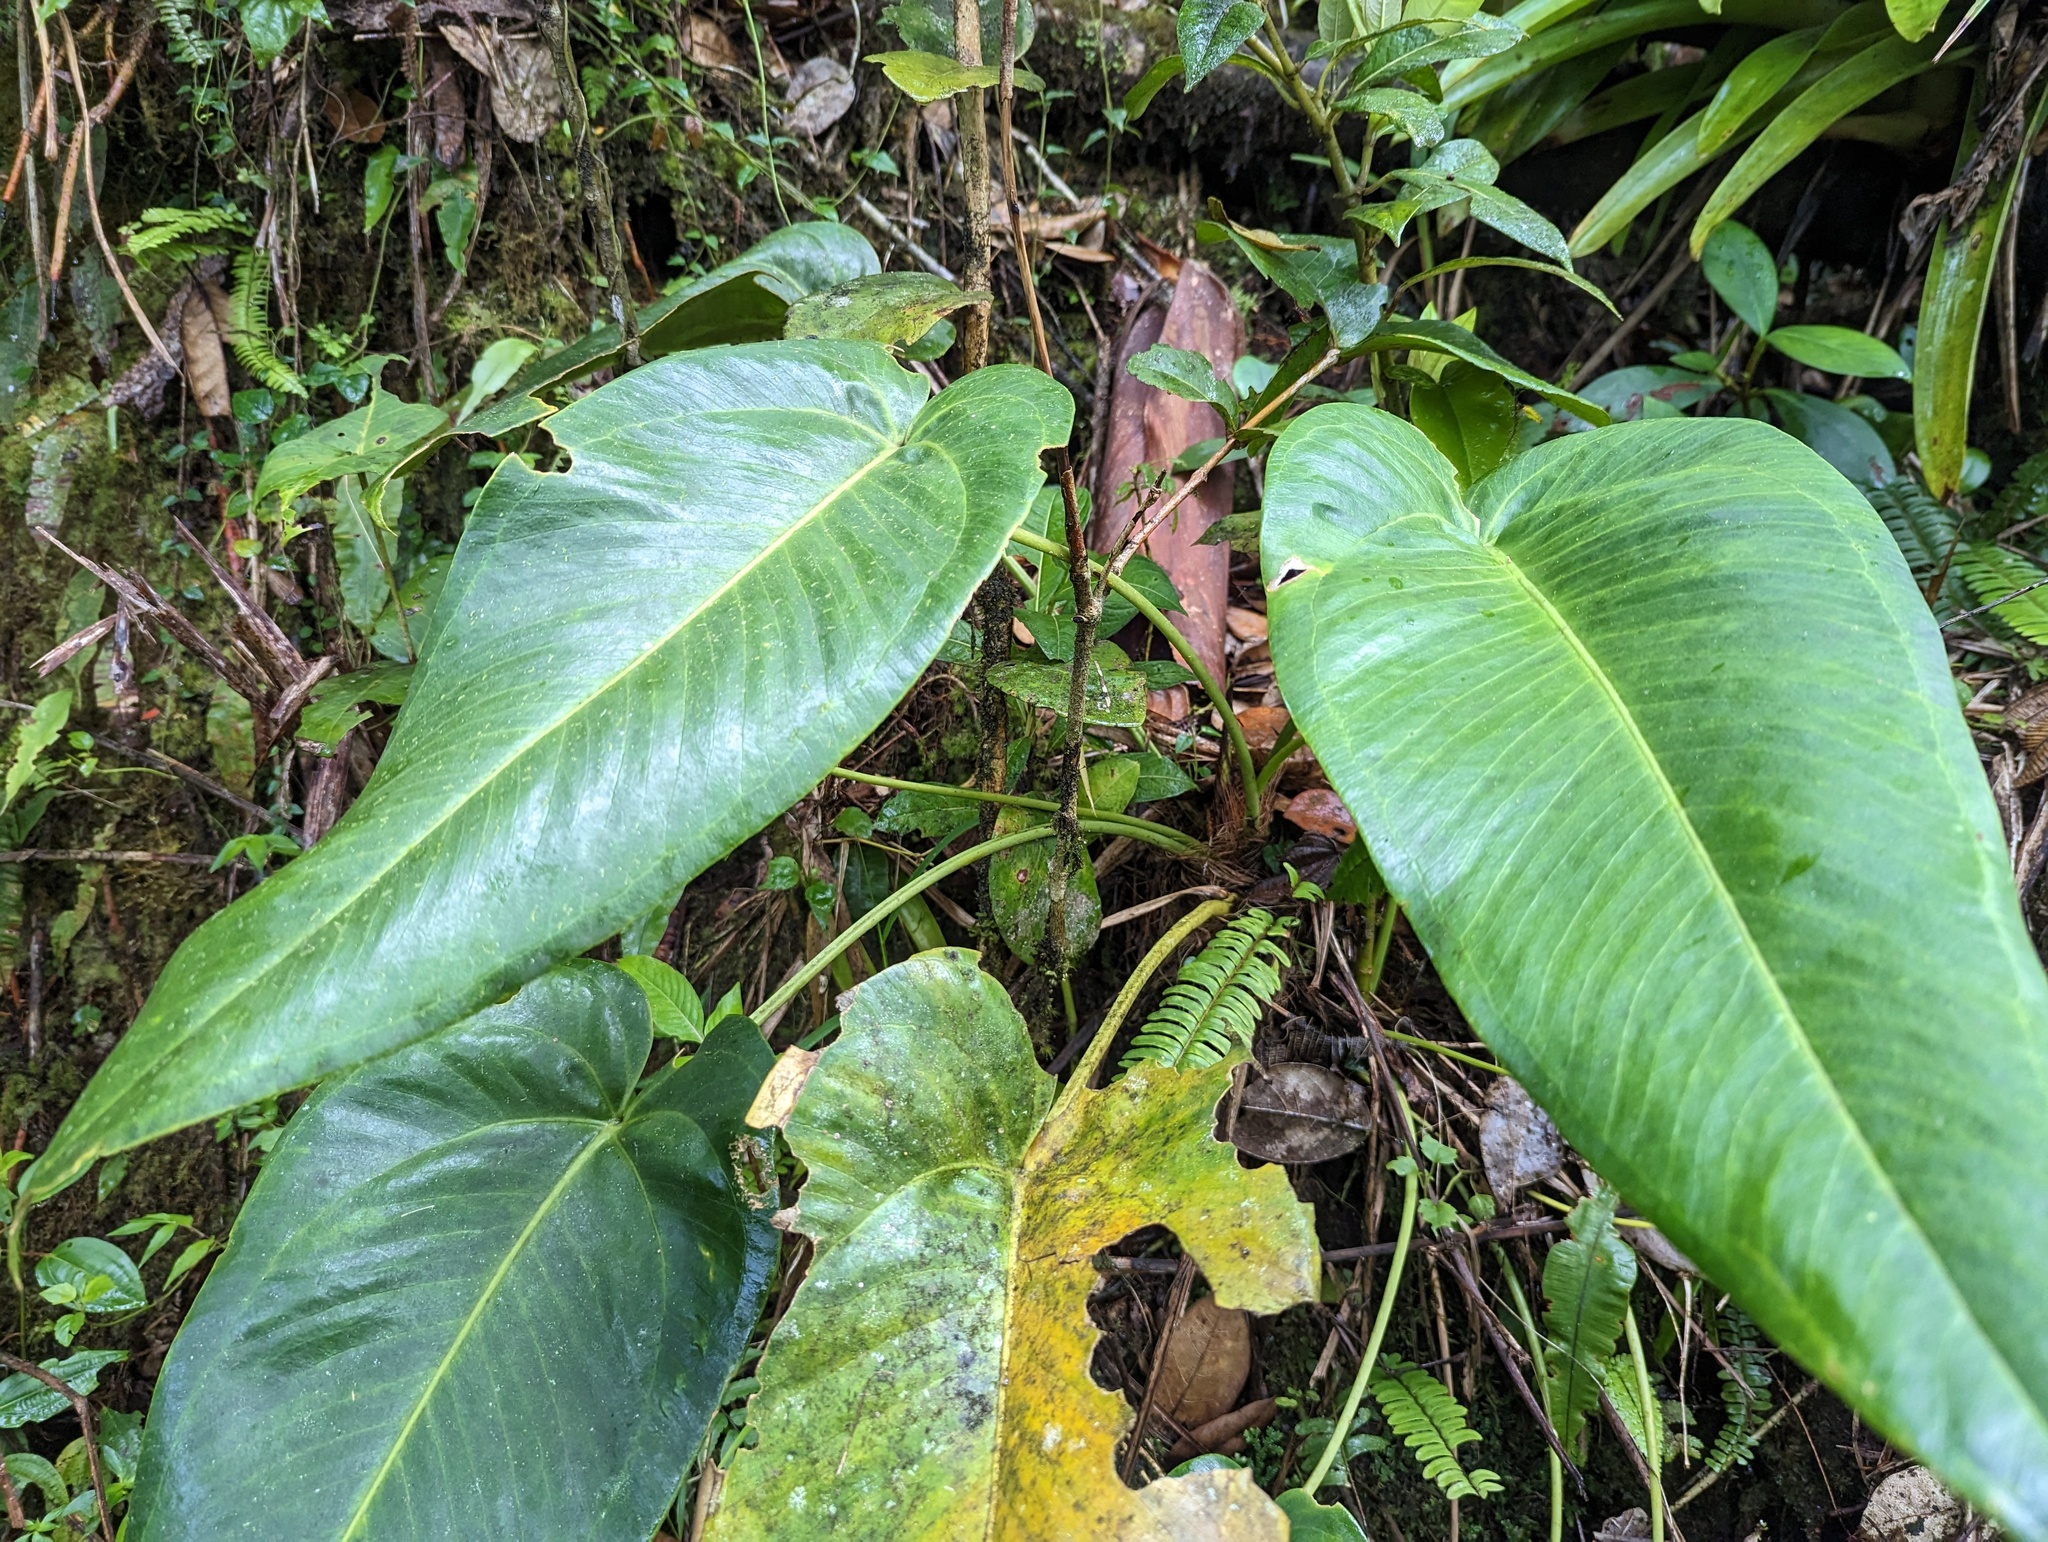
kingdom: Plantae
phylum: Tracheophyta
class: Liliopsida
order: Alismatales
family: Araceae
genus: Anthurium
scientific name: Anthurium dominicense
